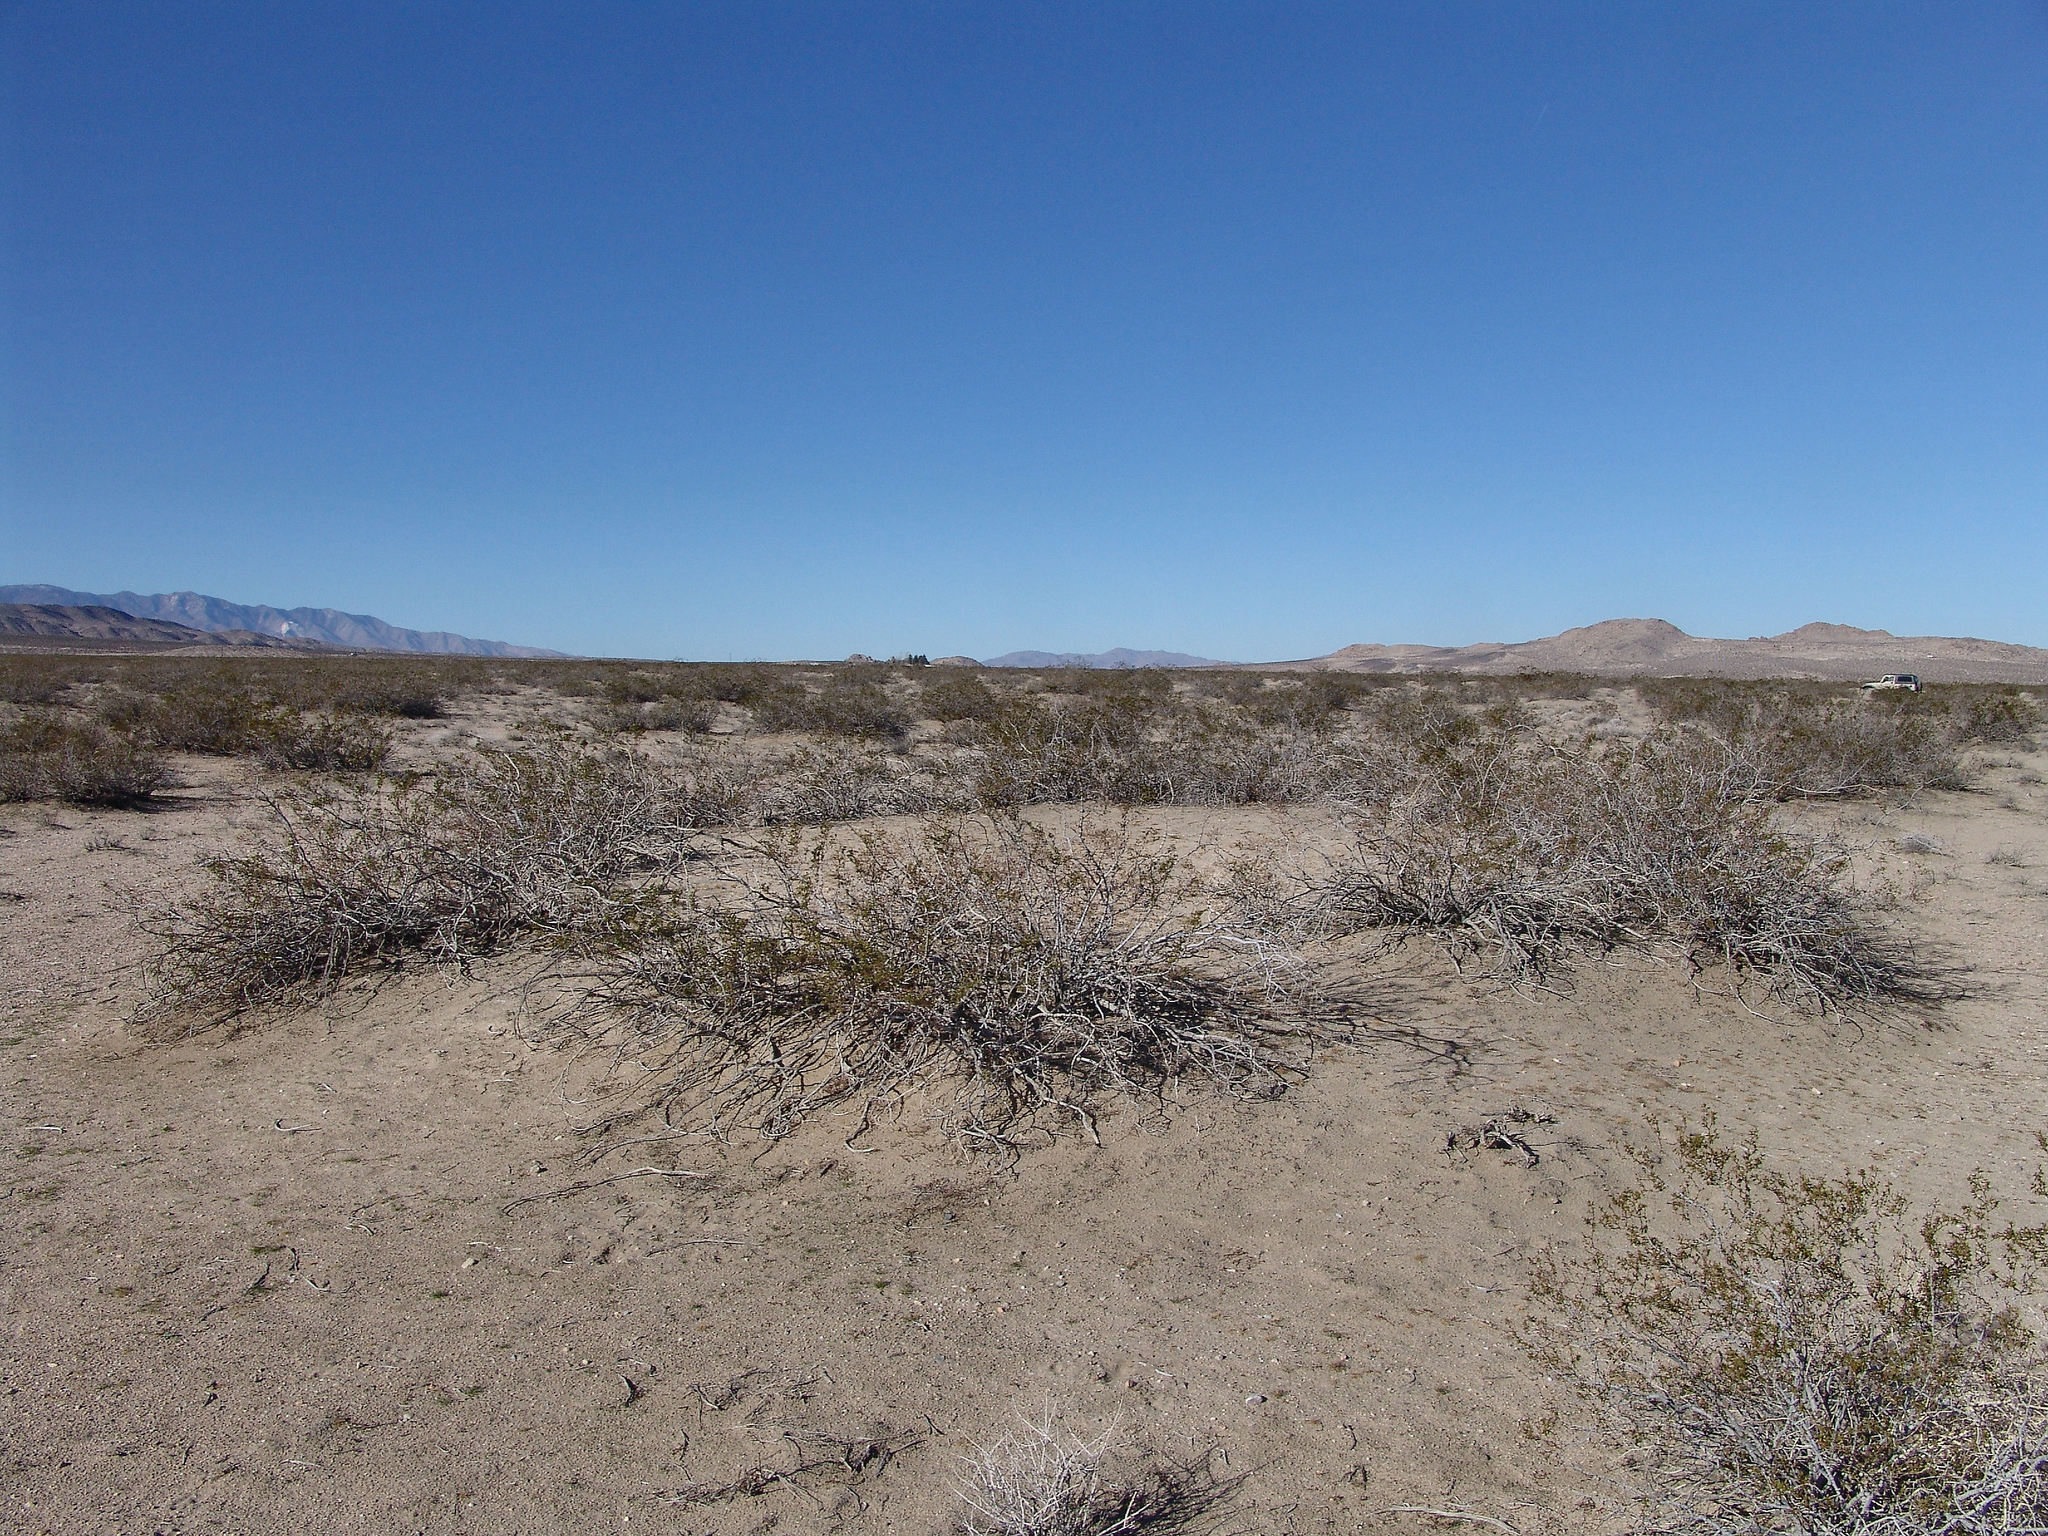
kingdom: Plantae
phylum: Tracheophyta
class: Magnoliopsida
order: Zygophyllales
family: Zygophyllaceae
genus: Larrea
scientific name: Larrea tridentata
